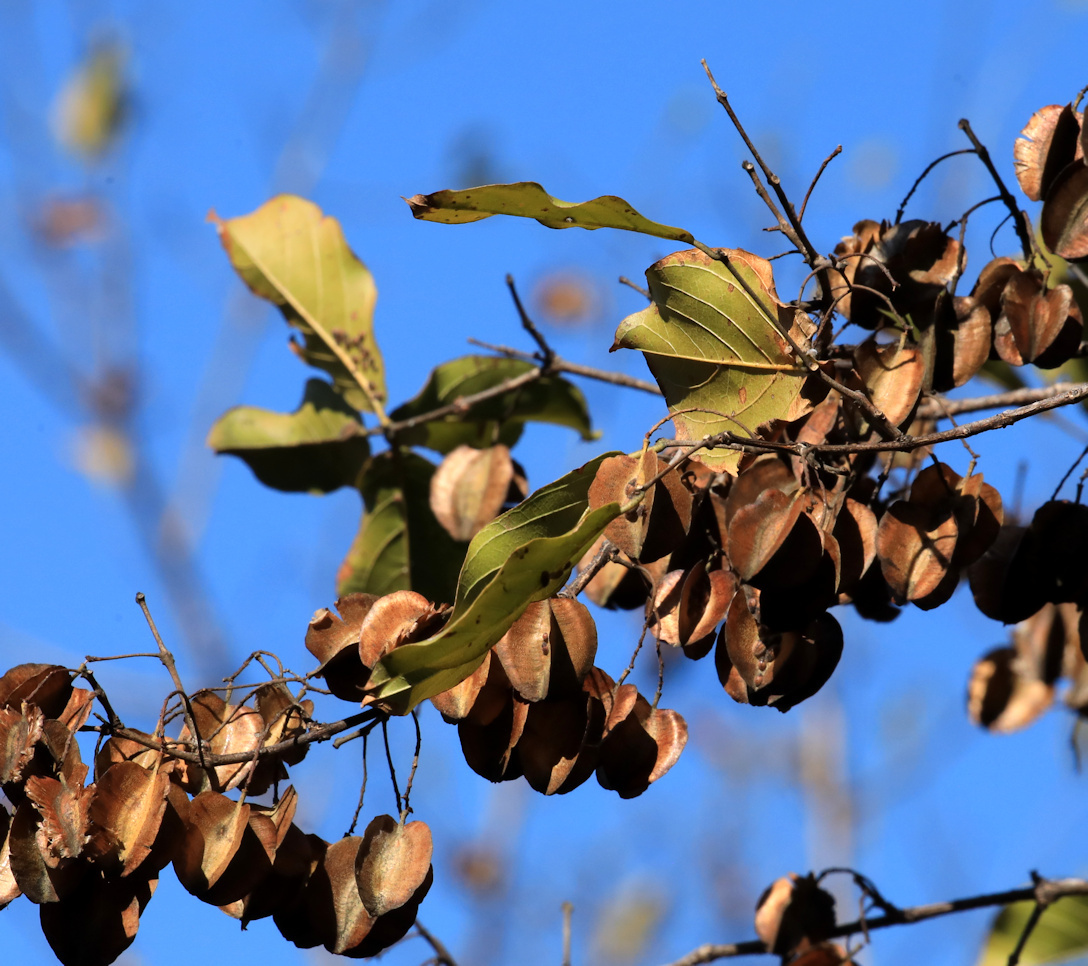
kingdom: Plantae
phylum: Tracheophyta
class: Magnoliopsida
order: Myrtales
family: Combretaceae
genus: Combretum
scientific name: Combretum apiculatum
